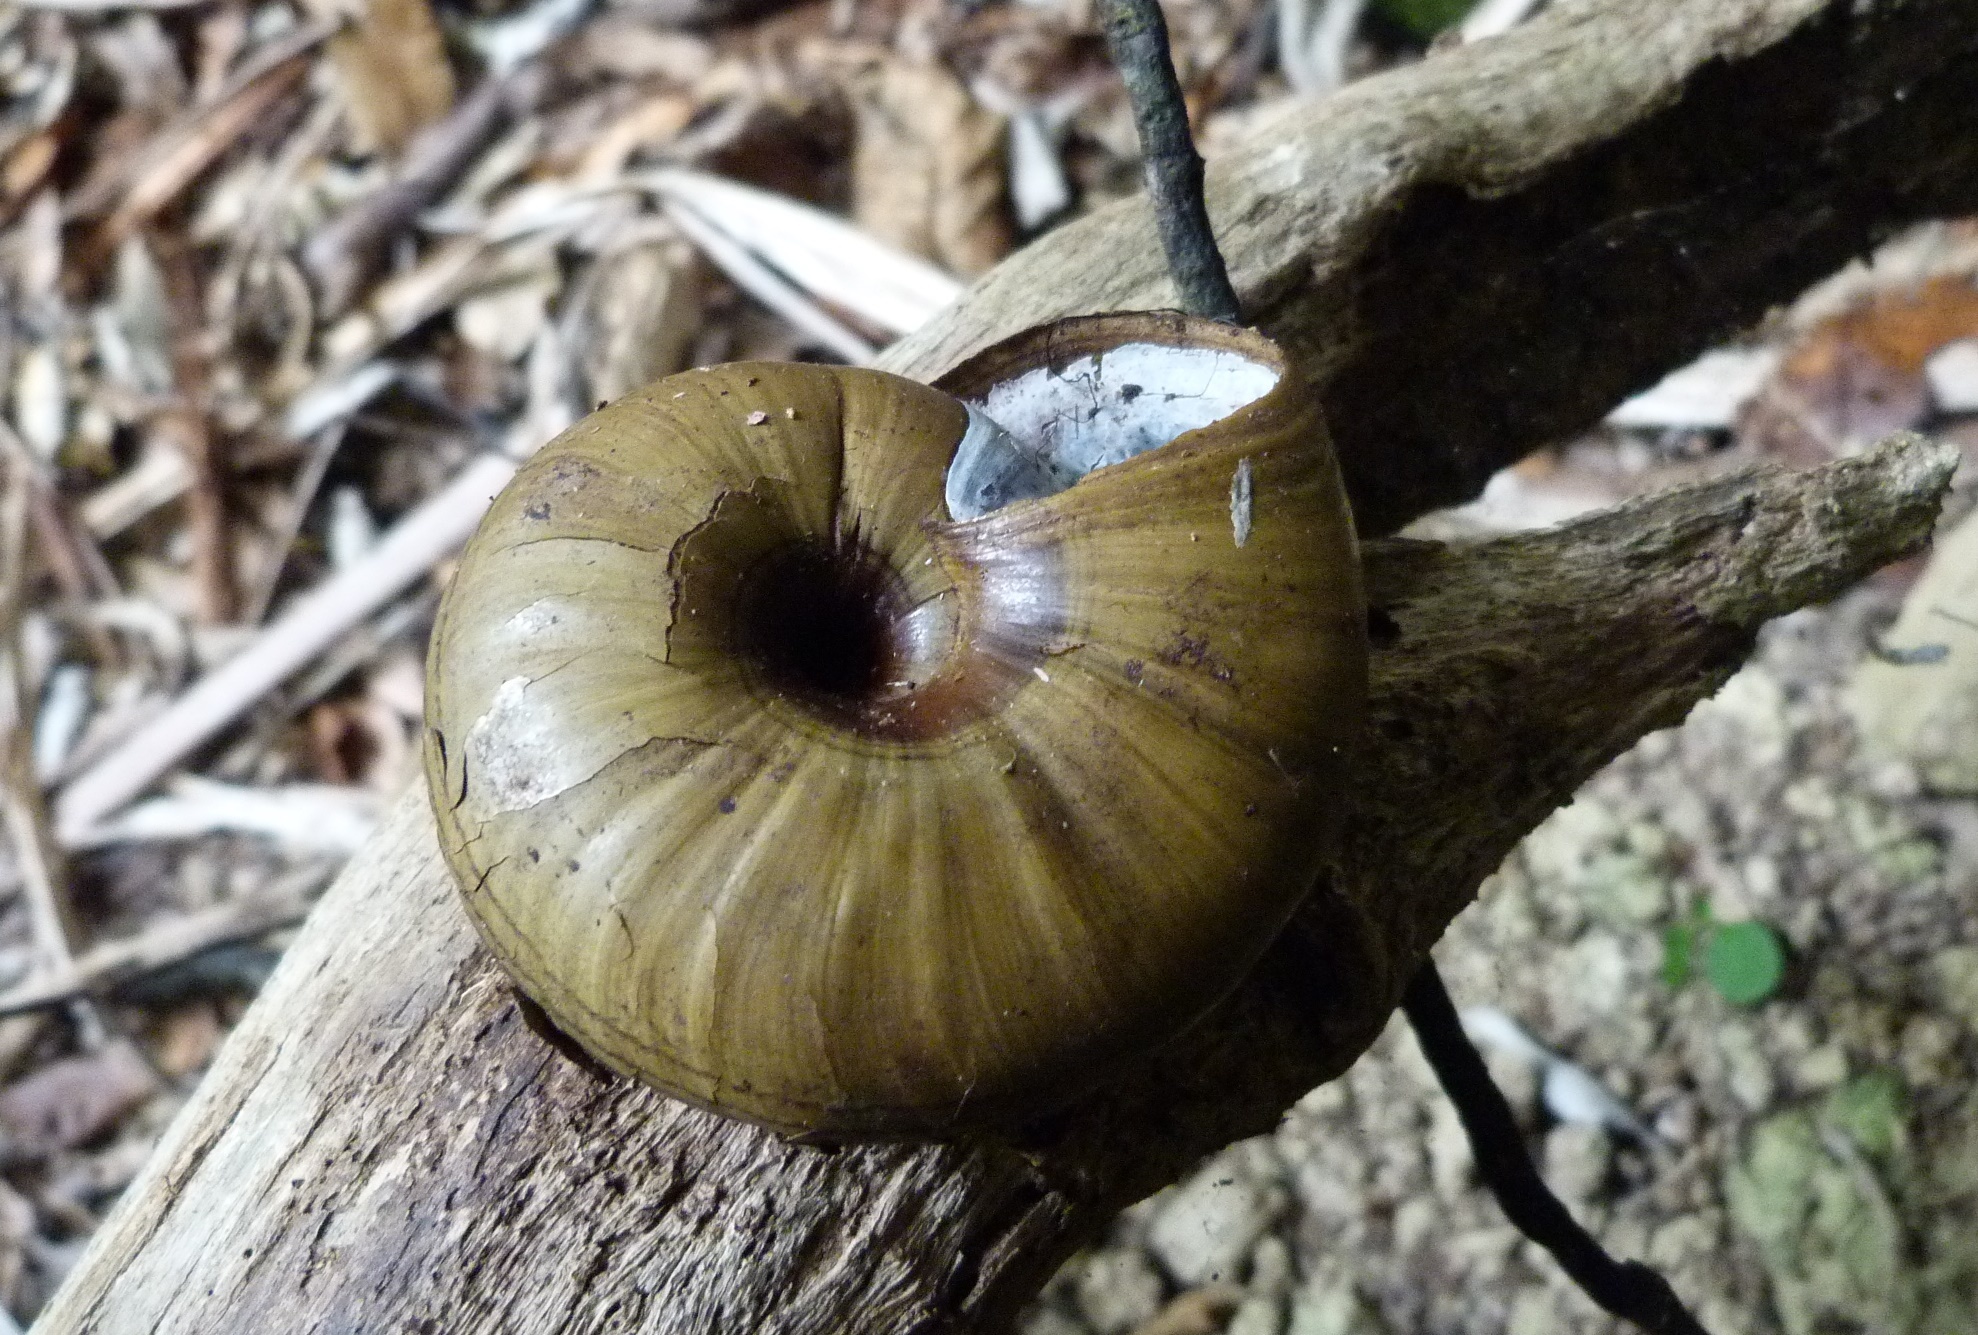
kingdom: Animalia
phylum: Mollusca
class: Gastropoda
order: Stylommatophora
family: Rhytididae
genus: Powelliphanta
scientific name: Powelliphanta hochstetteri
